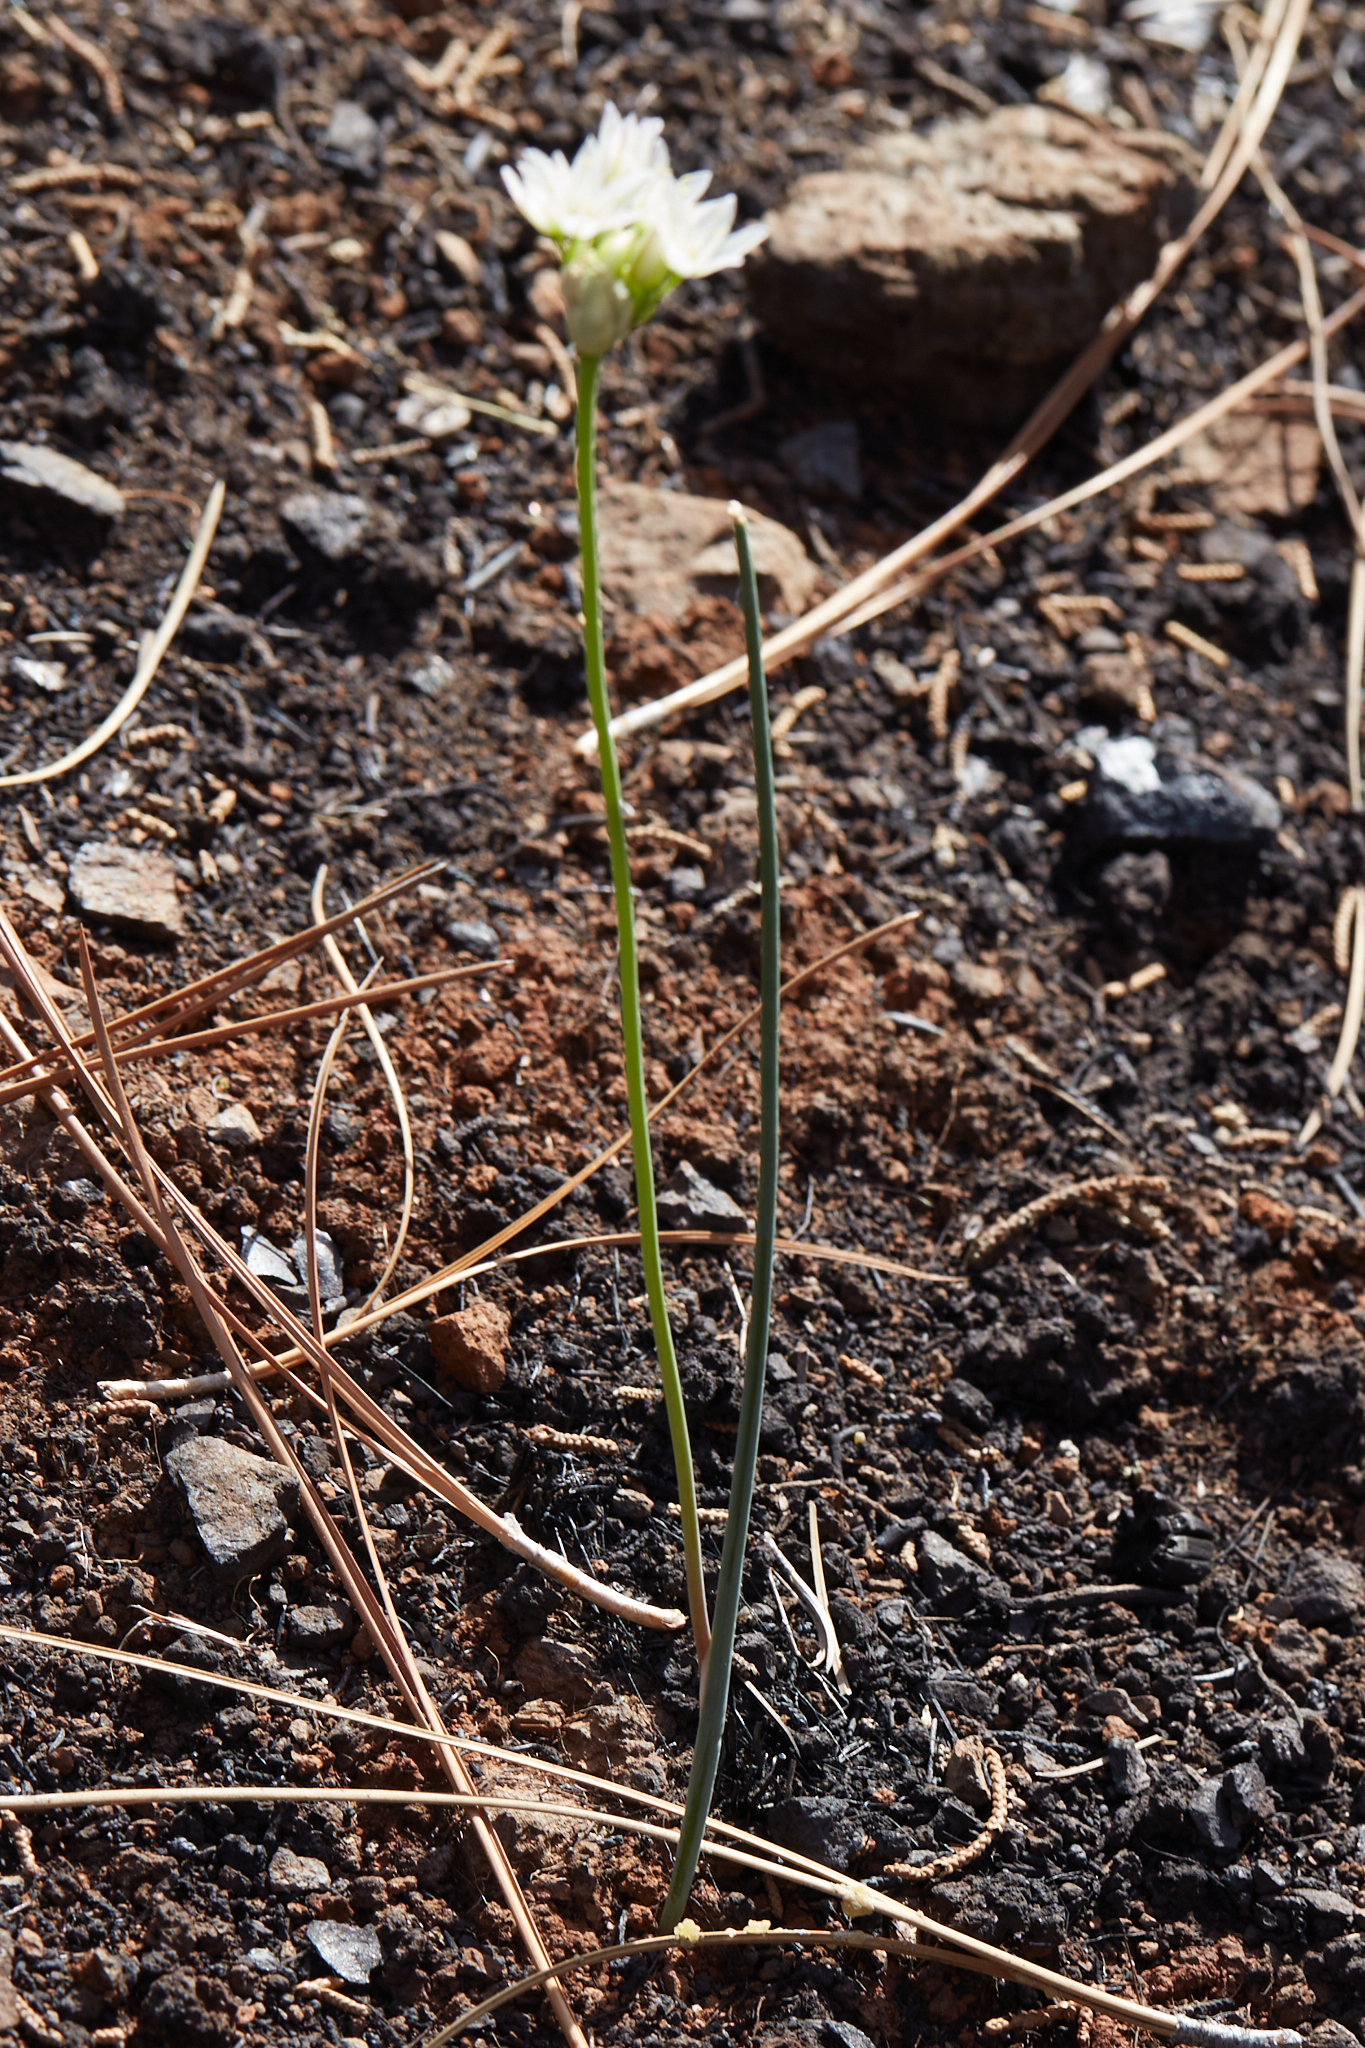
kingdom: Plantae
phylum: Tracheophyta
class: Liliopsida
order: Asparagales
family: Amaryllidaceae
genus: Allium
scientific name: Allium diabolense
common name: Serpentine onion
